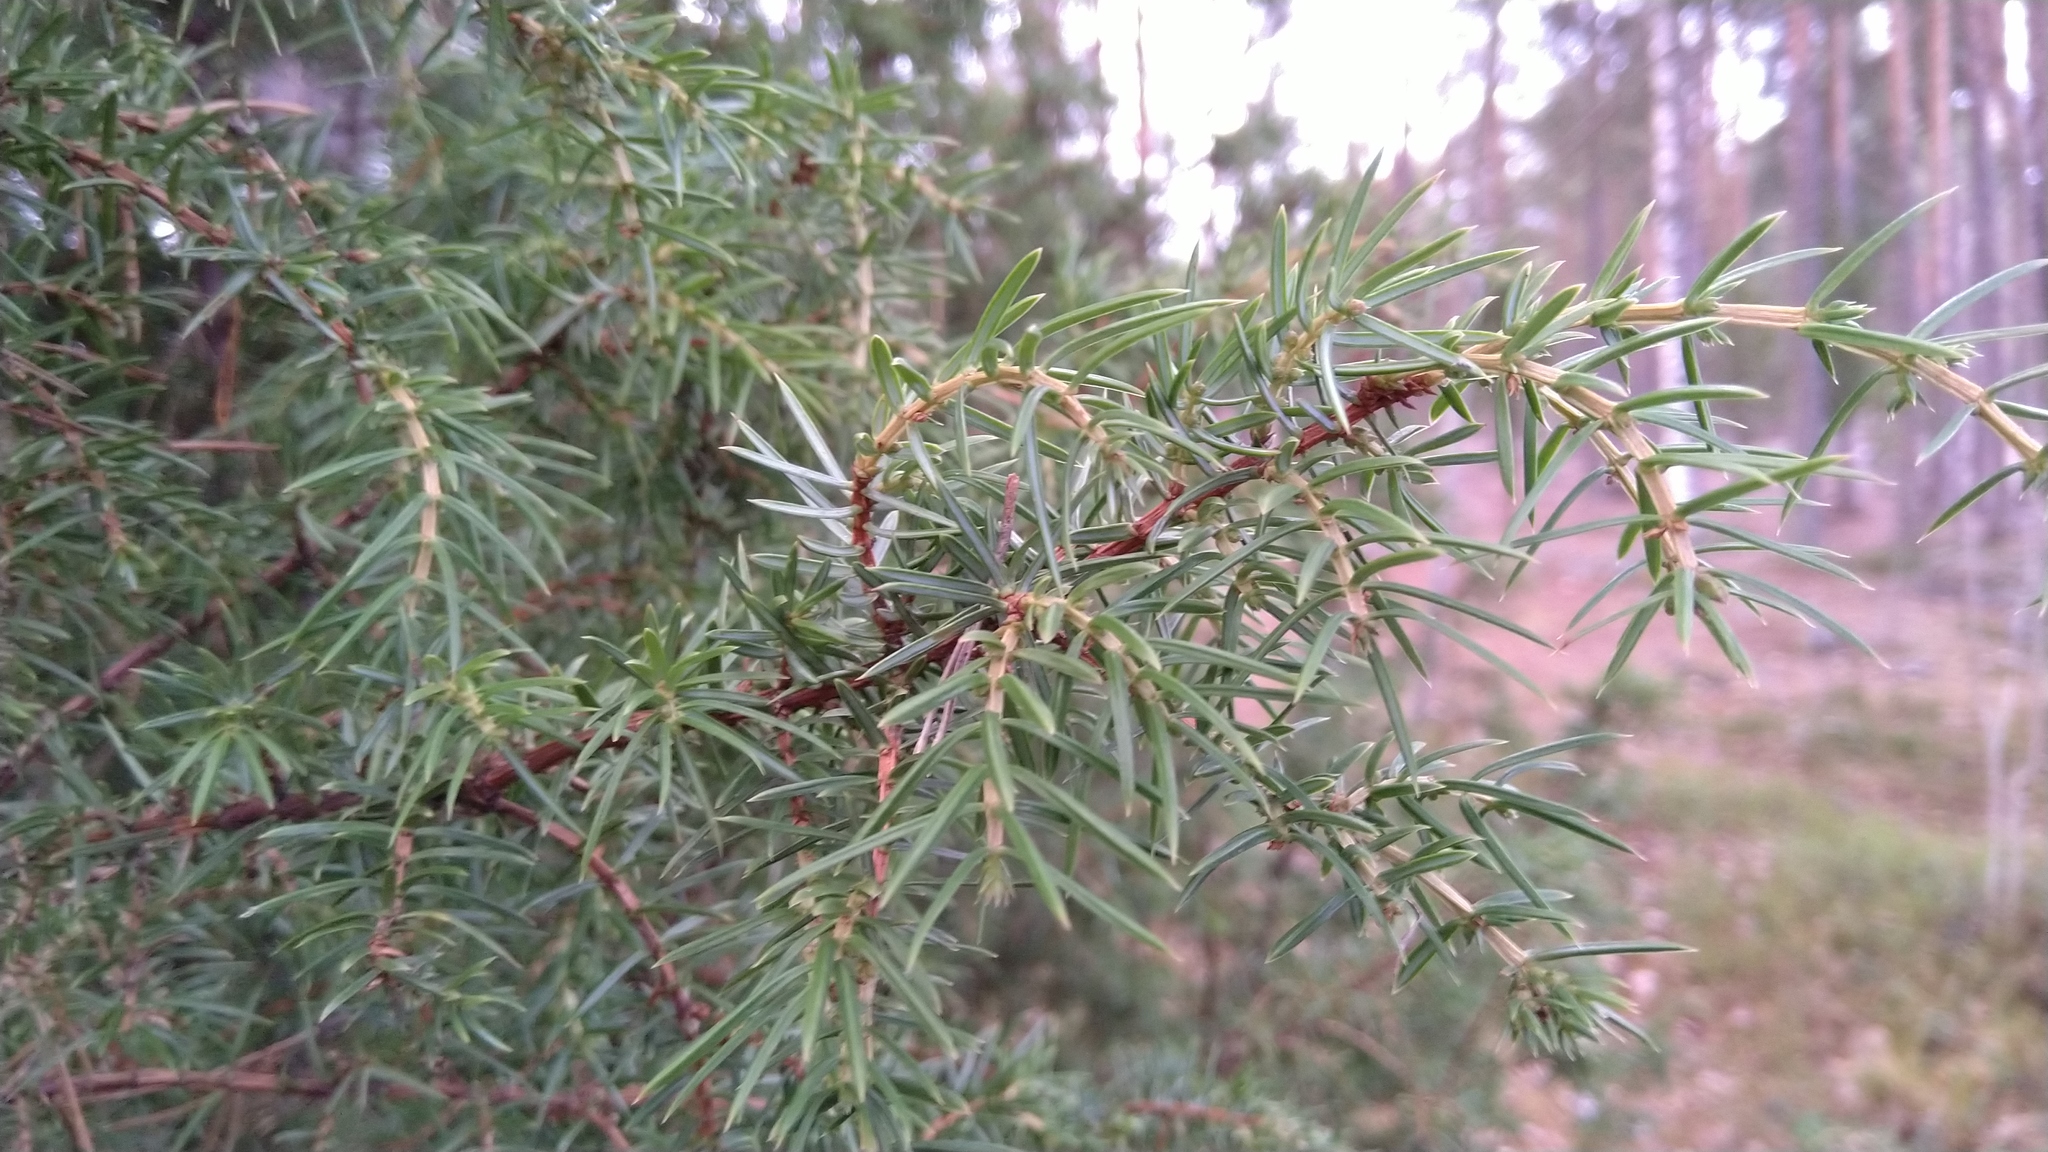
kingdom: Plantae
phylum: Tracheophyta
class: Pinopsida
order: Pinales
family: Cupressaceae
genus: Juniperus
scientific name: Juniperus communis
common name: Common juniper
